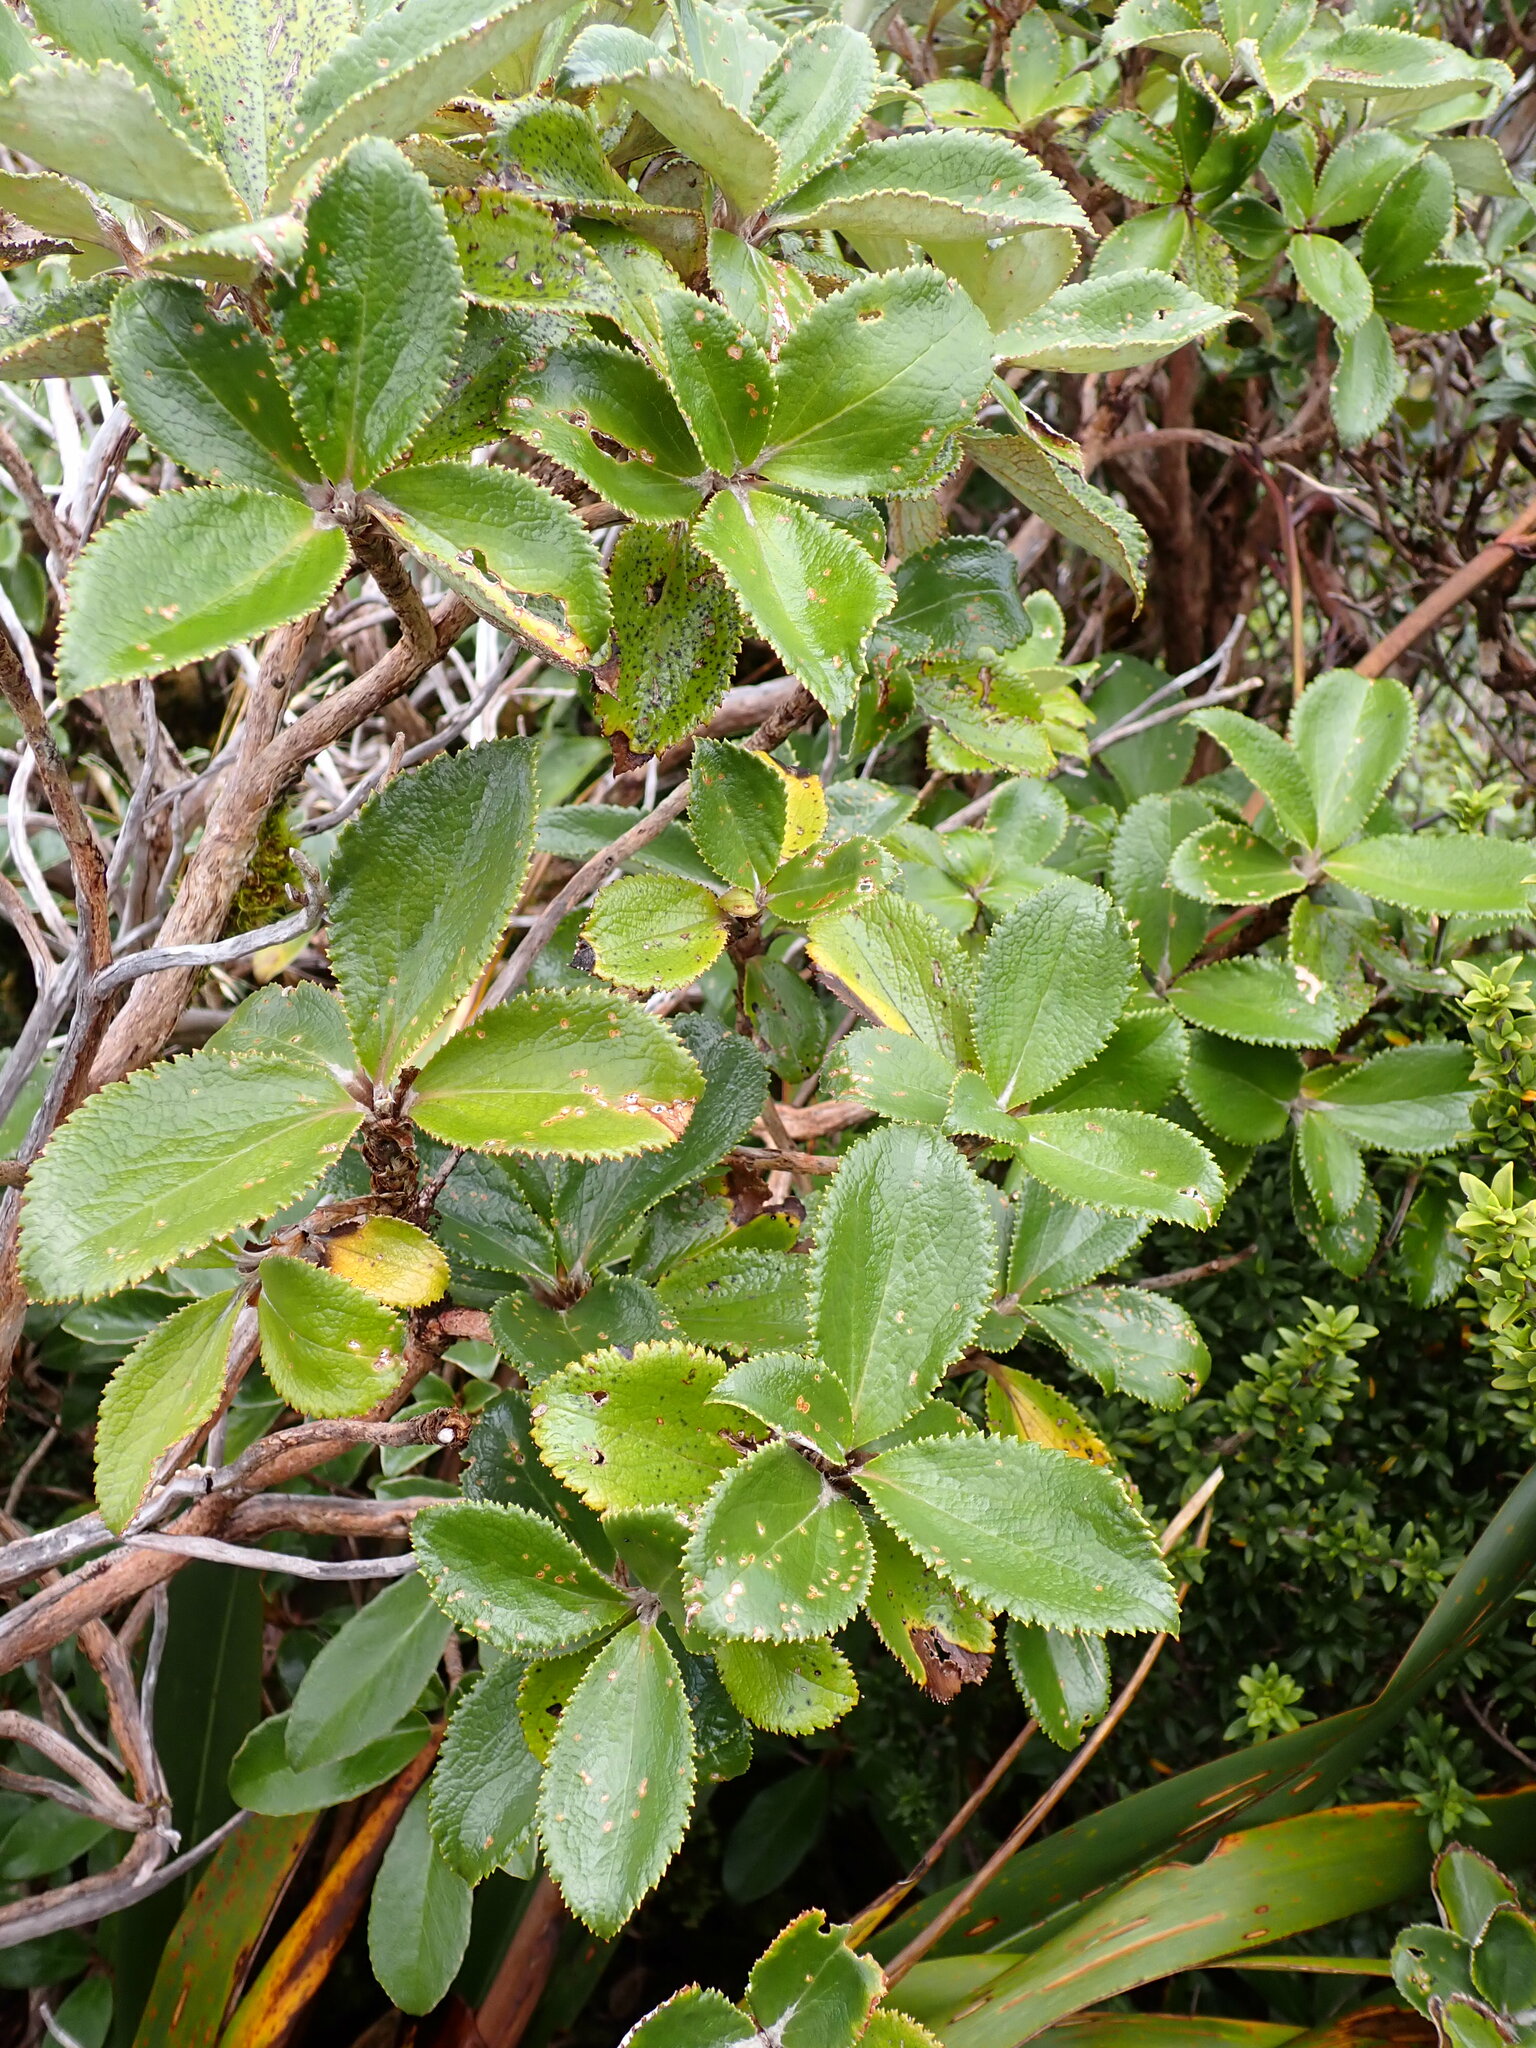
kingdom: Plantae
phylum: Tracheophyta
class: Magnoliopsida
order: Asterales
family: Asteraceae
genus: Macrolearia
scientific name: Macrolearia colensoi
